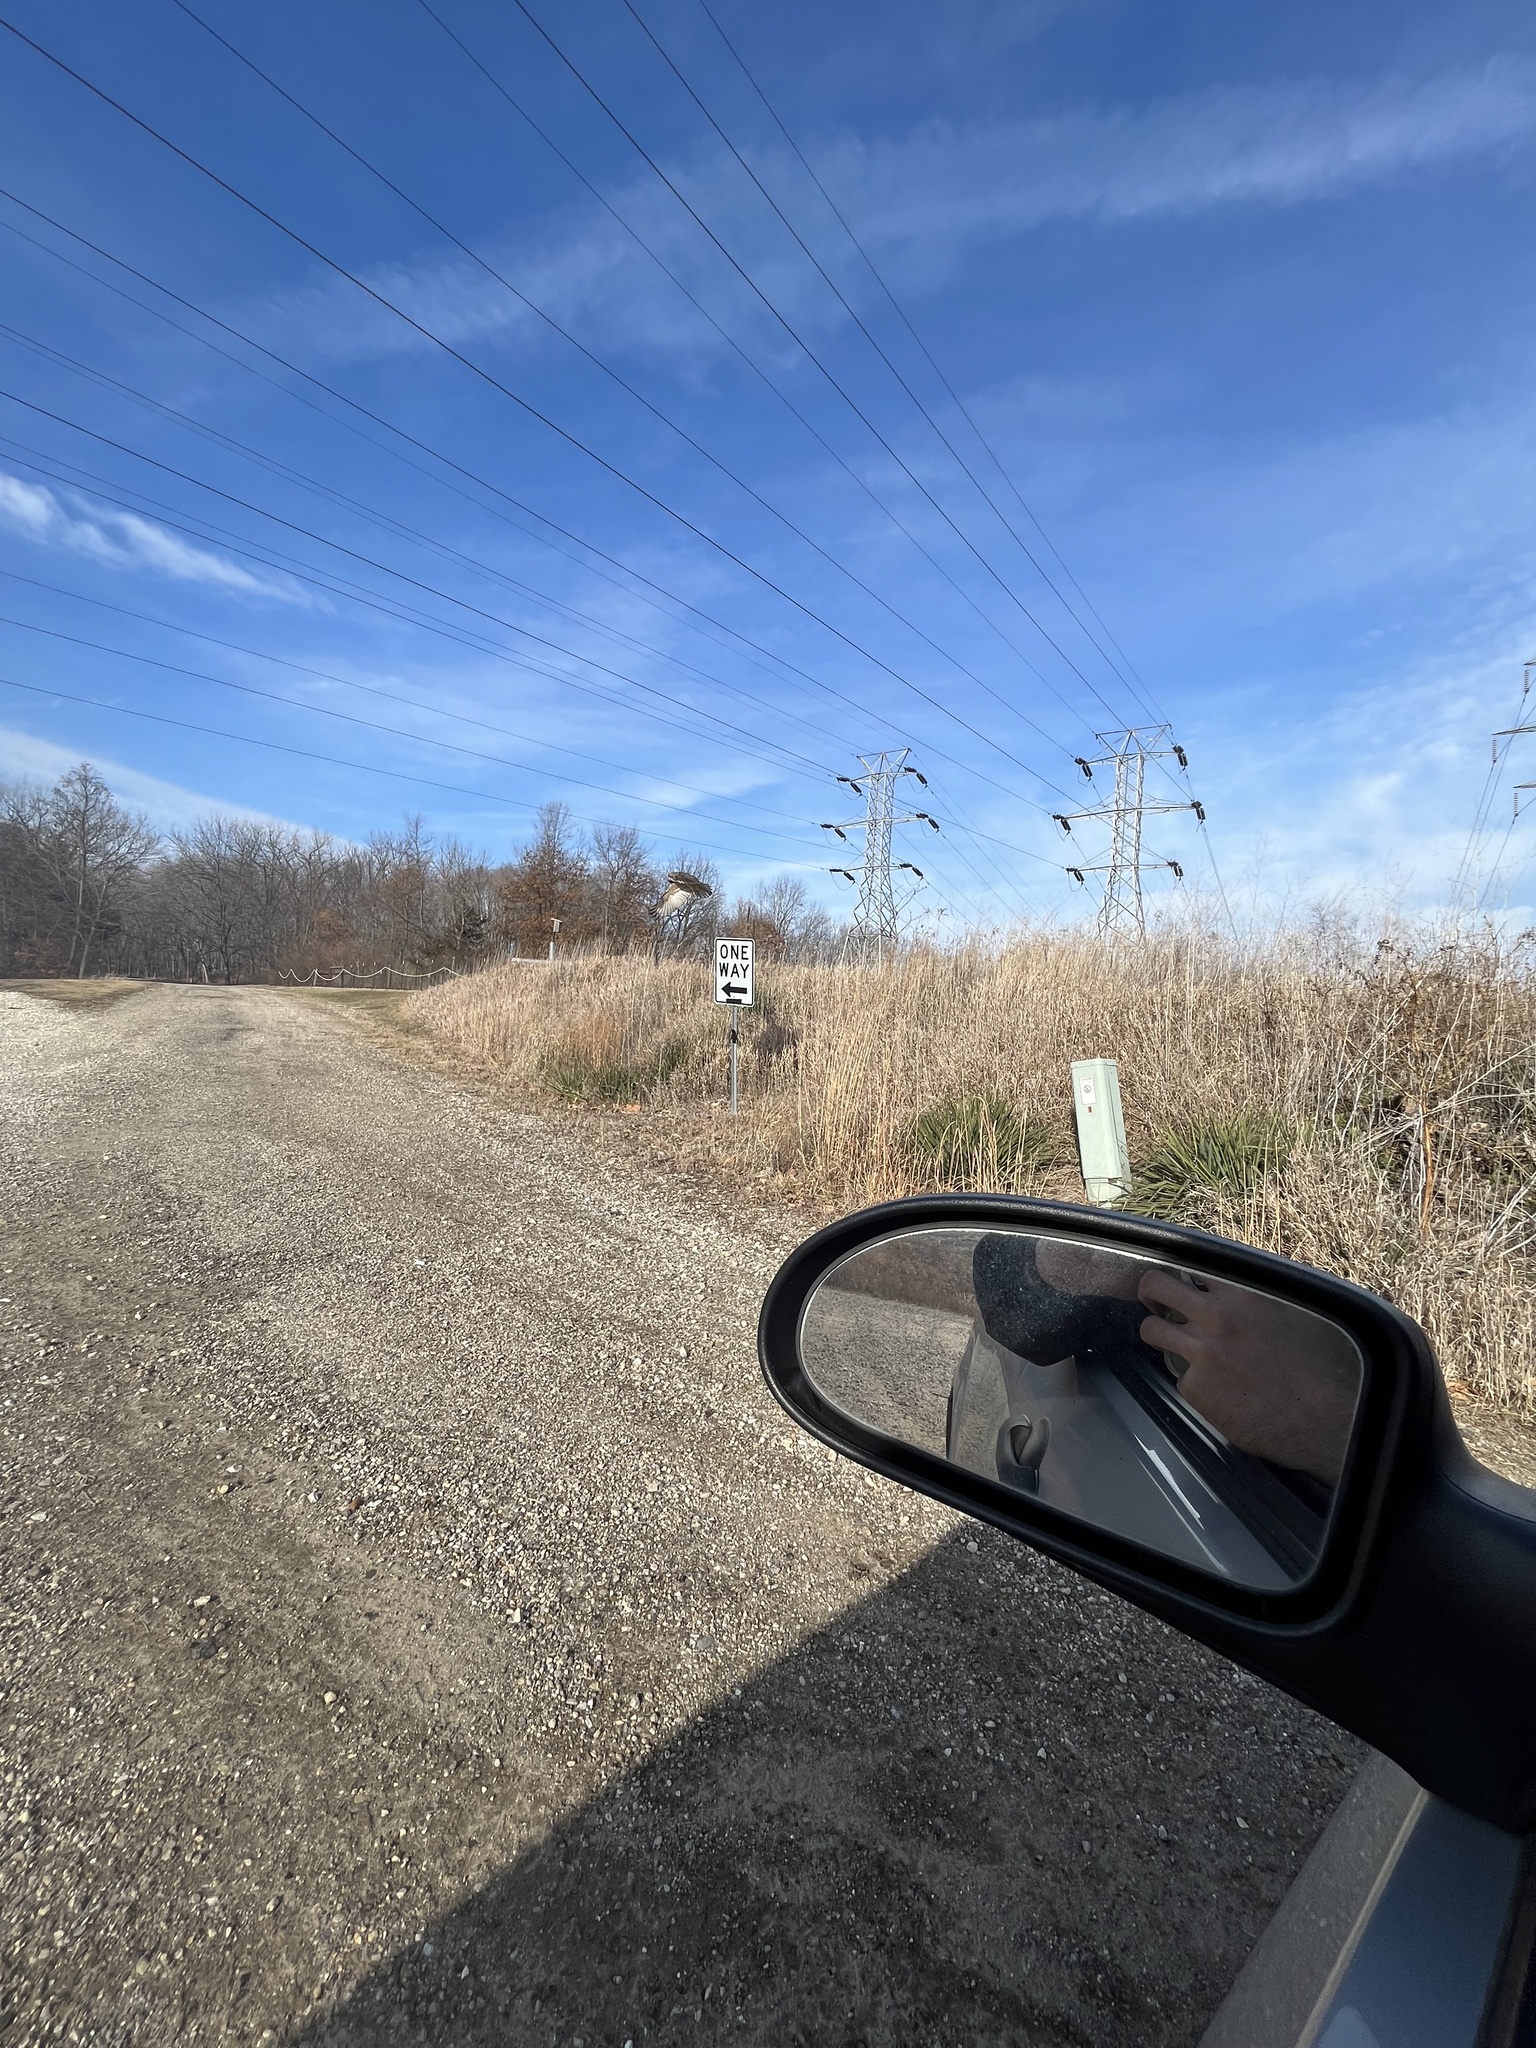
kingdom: Animalia
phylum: Chordata
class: Aves
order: Accipitriformes
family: Accipitridae
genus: Buteo
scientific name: Buteo jamaicensis
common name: Red-tailed hawk
